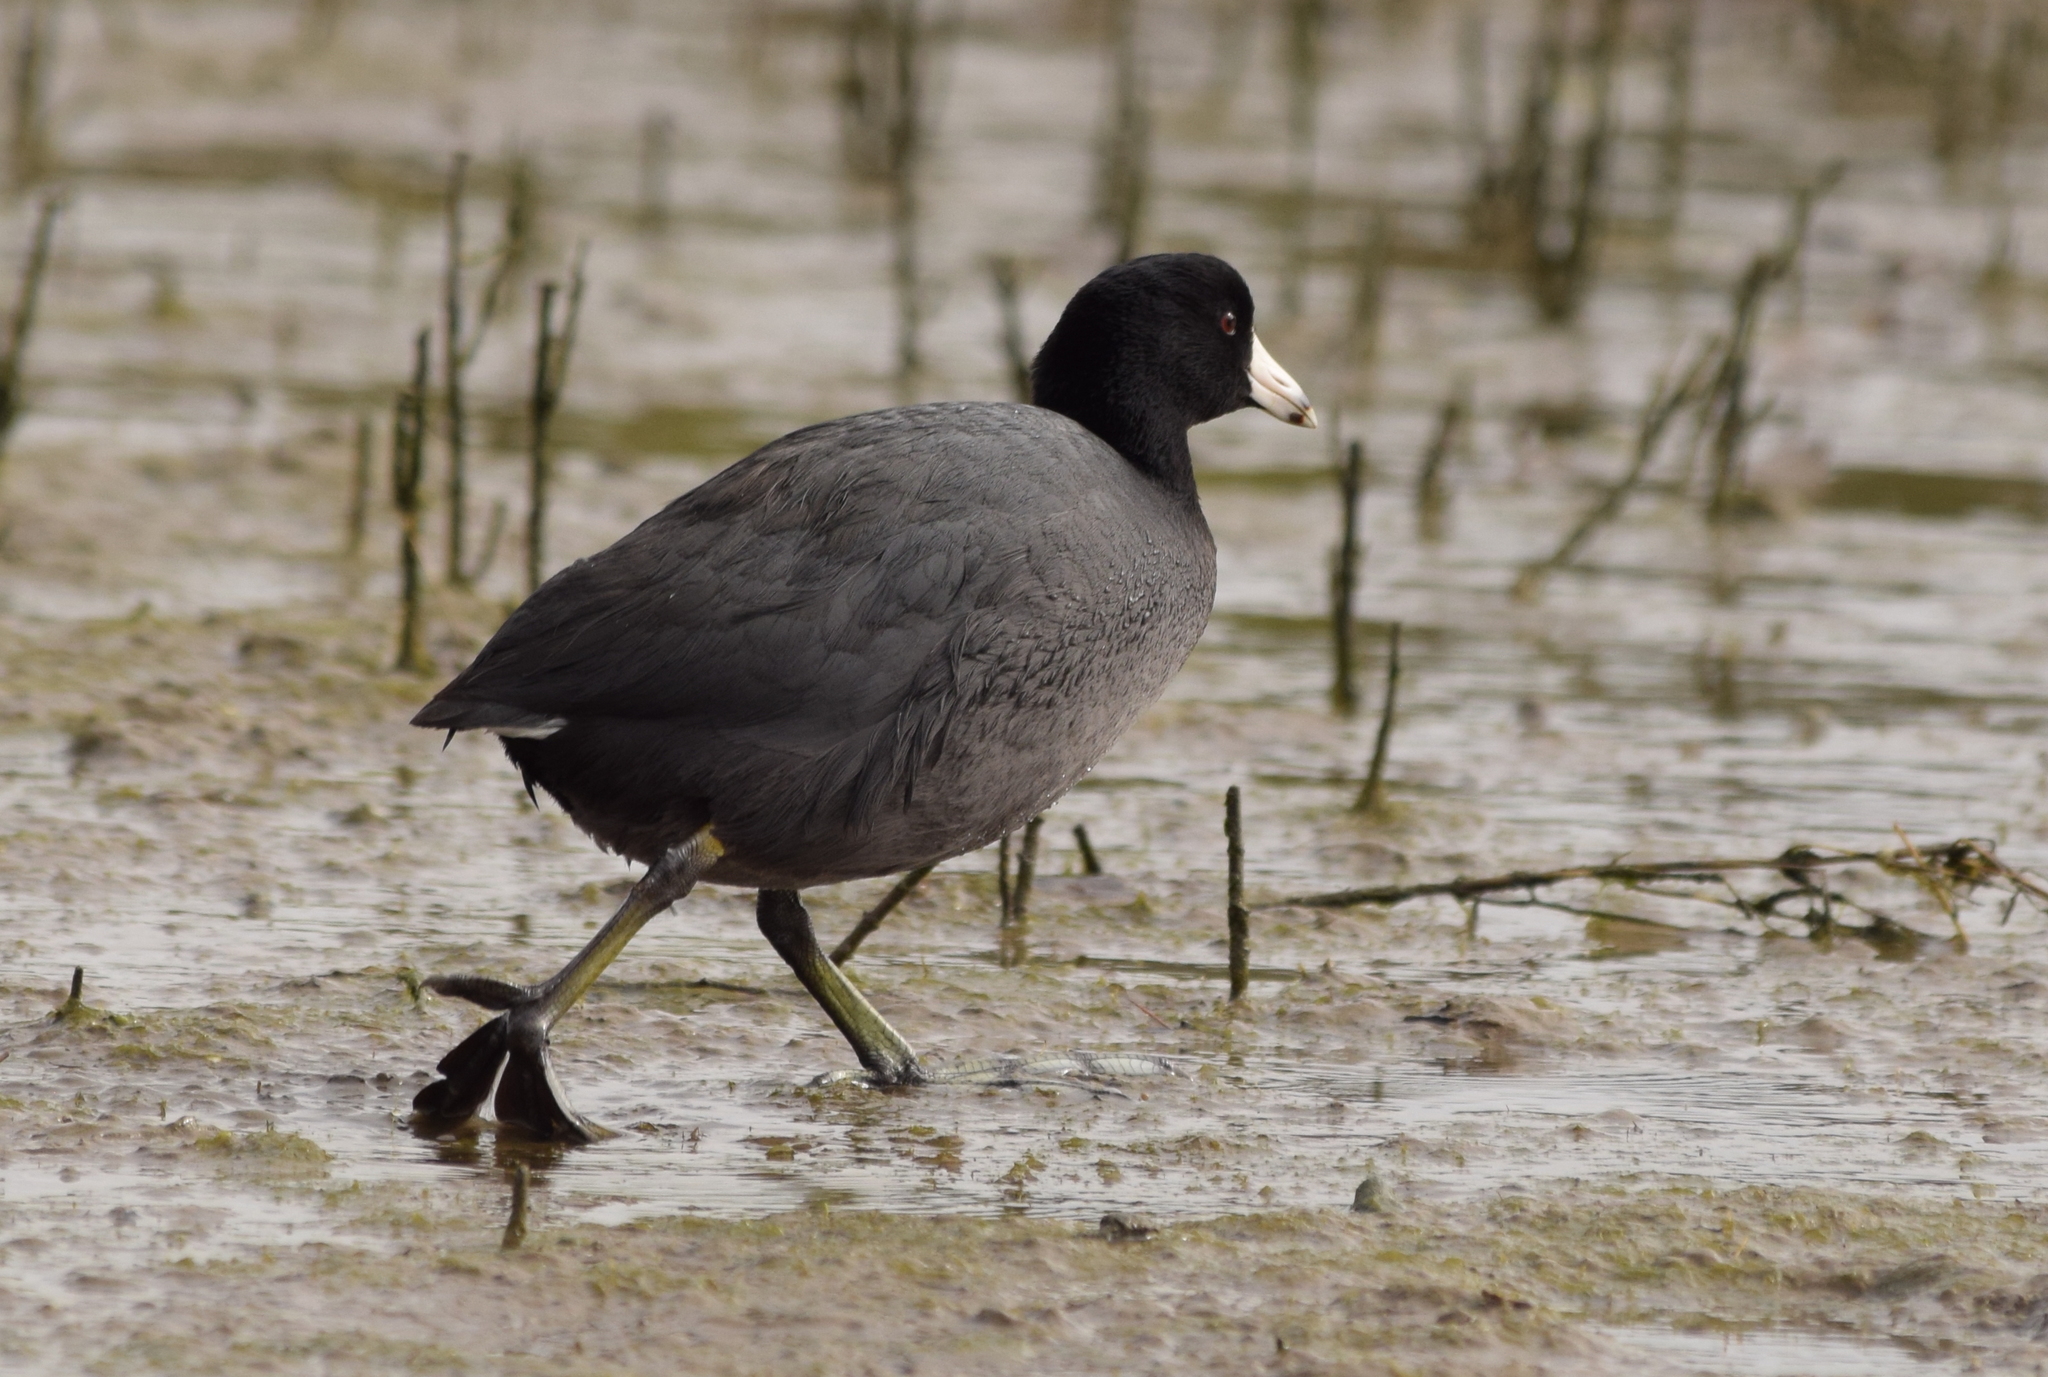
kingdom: Animalia
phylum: Chordata
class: Aves
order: Gruiformes
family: Rallidae
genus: Fulica
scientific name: Fulica americana
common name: American coot
